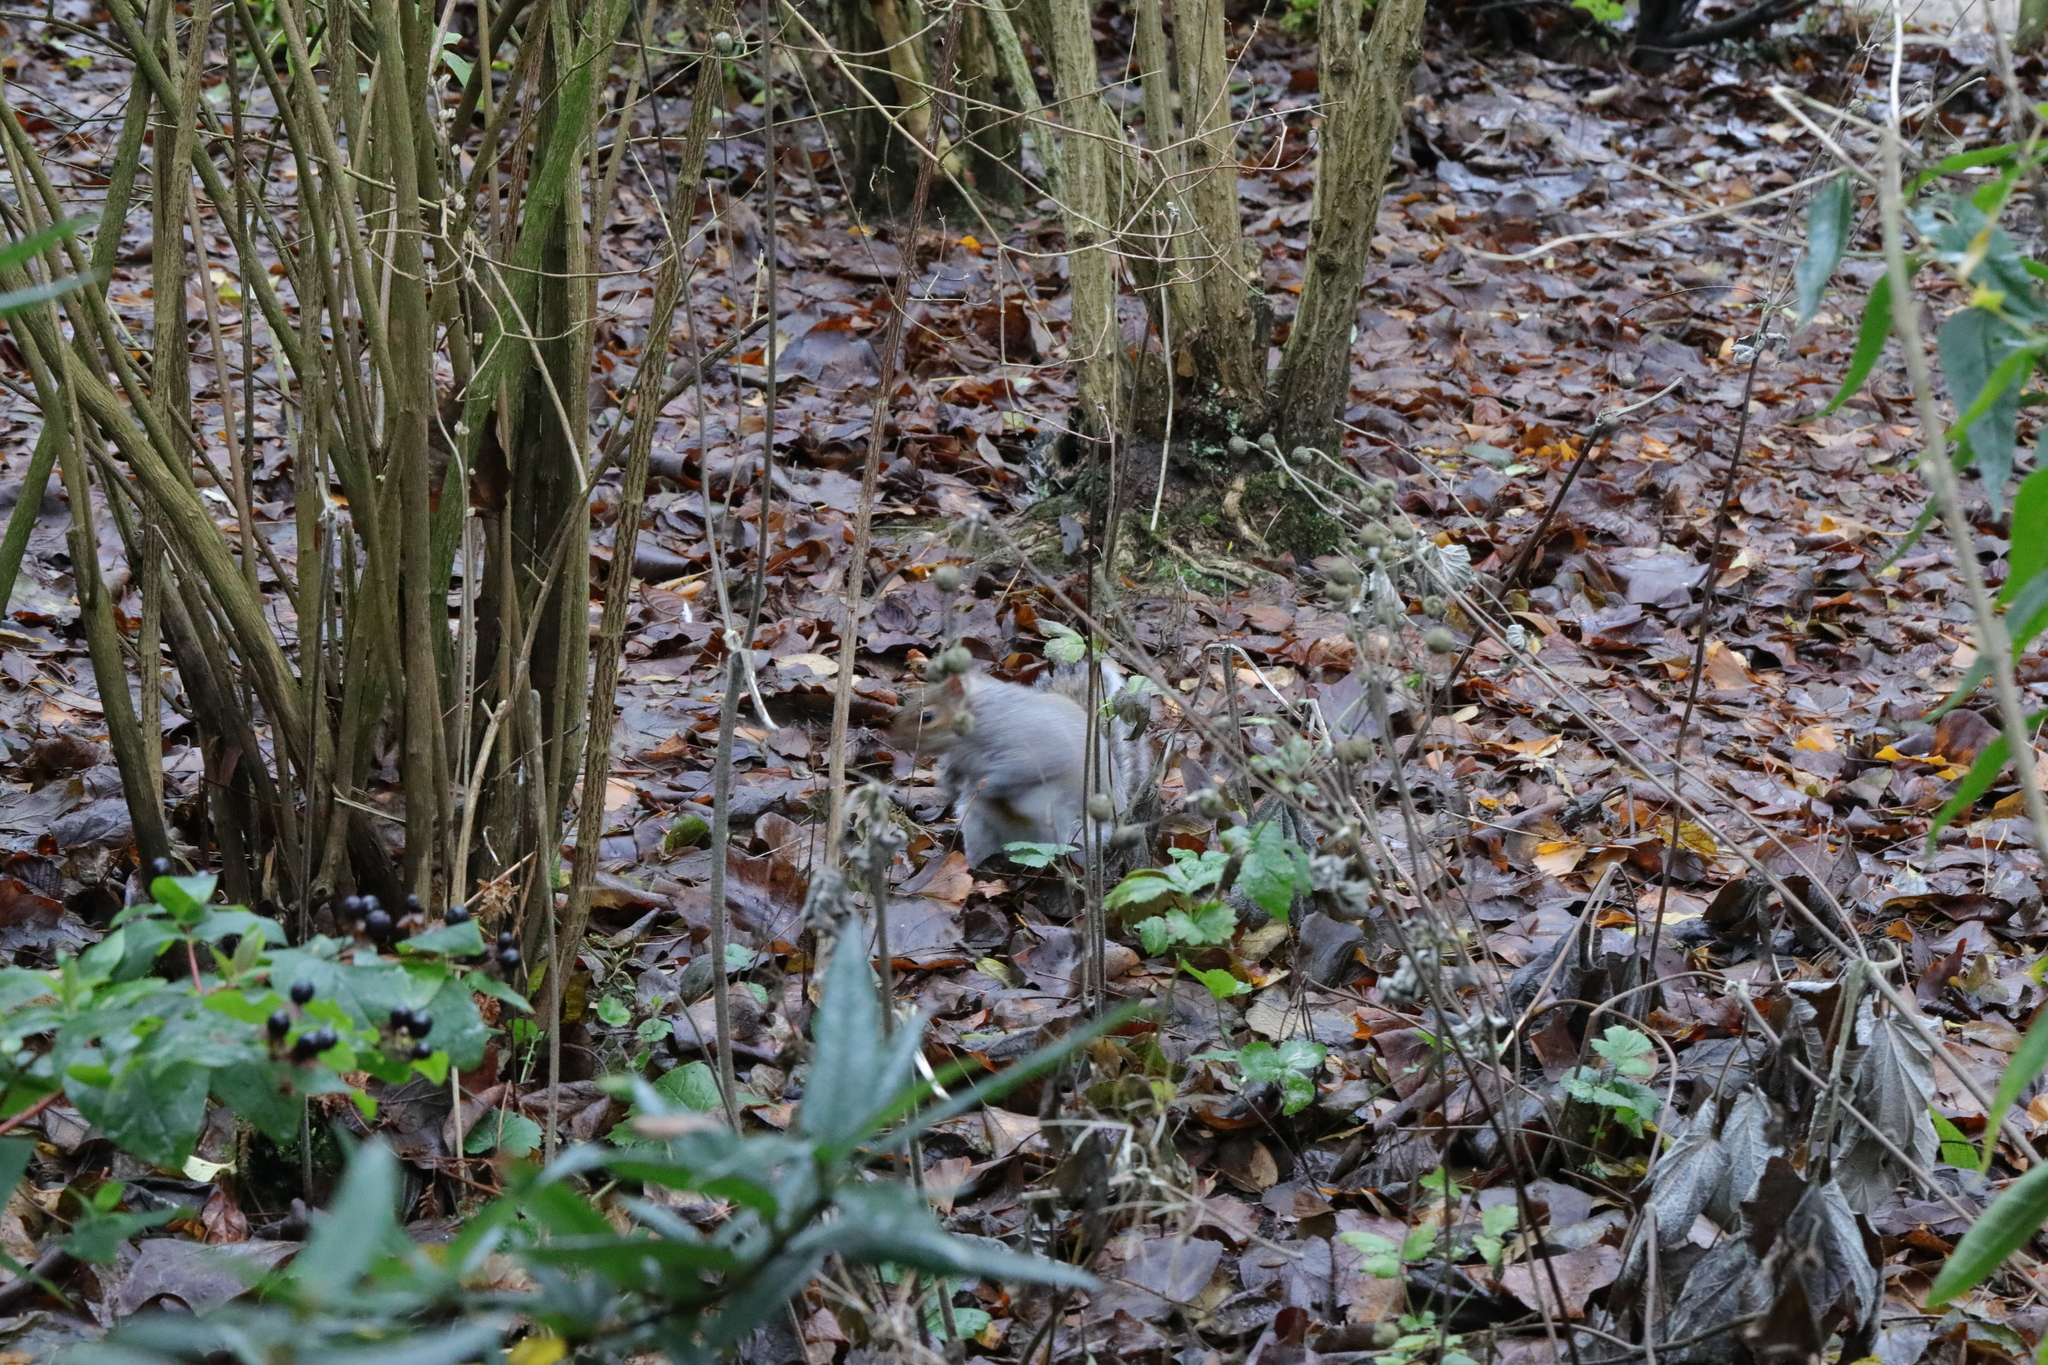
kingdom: Animalia
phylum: Chordata
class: Mammalia
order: Rodentia
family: Sciuridae
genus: Sciurus
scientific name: Sciurus carolinensis
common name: Eastern gray squirrel
